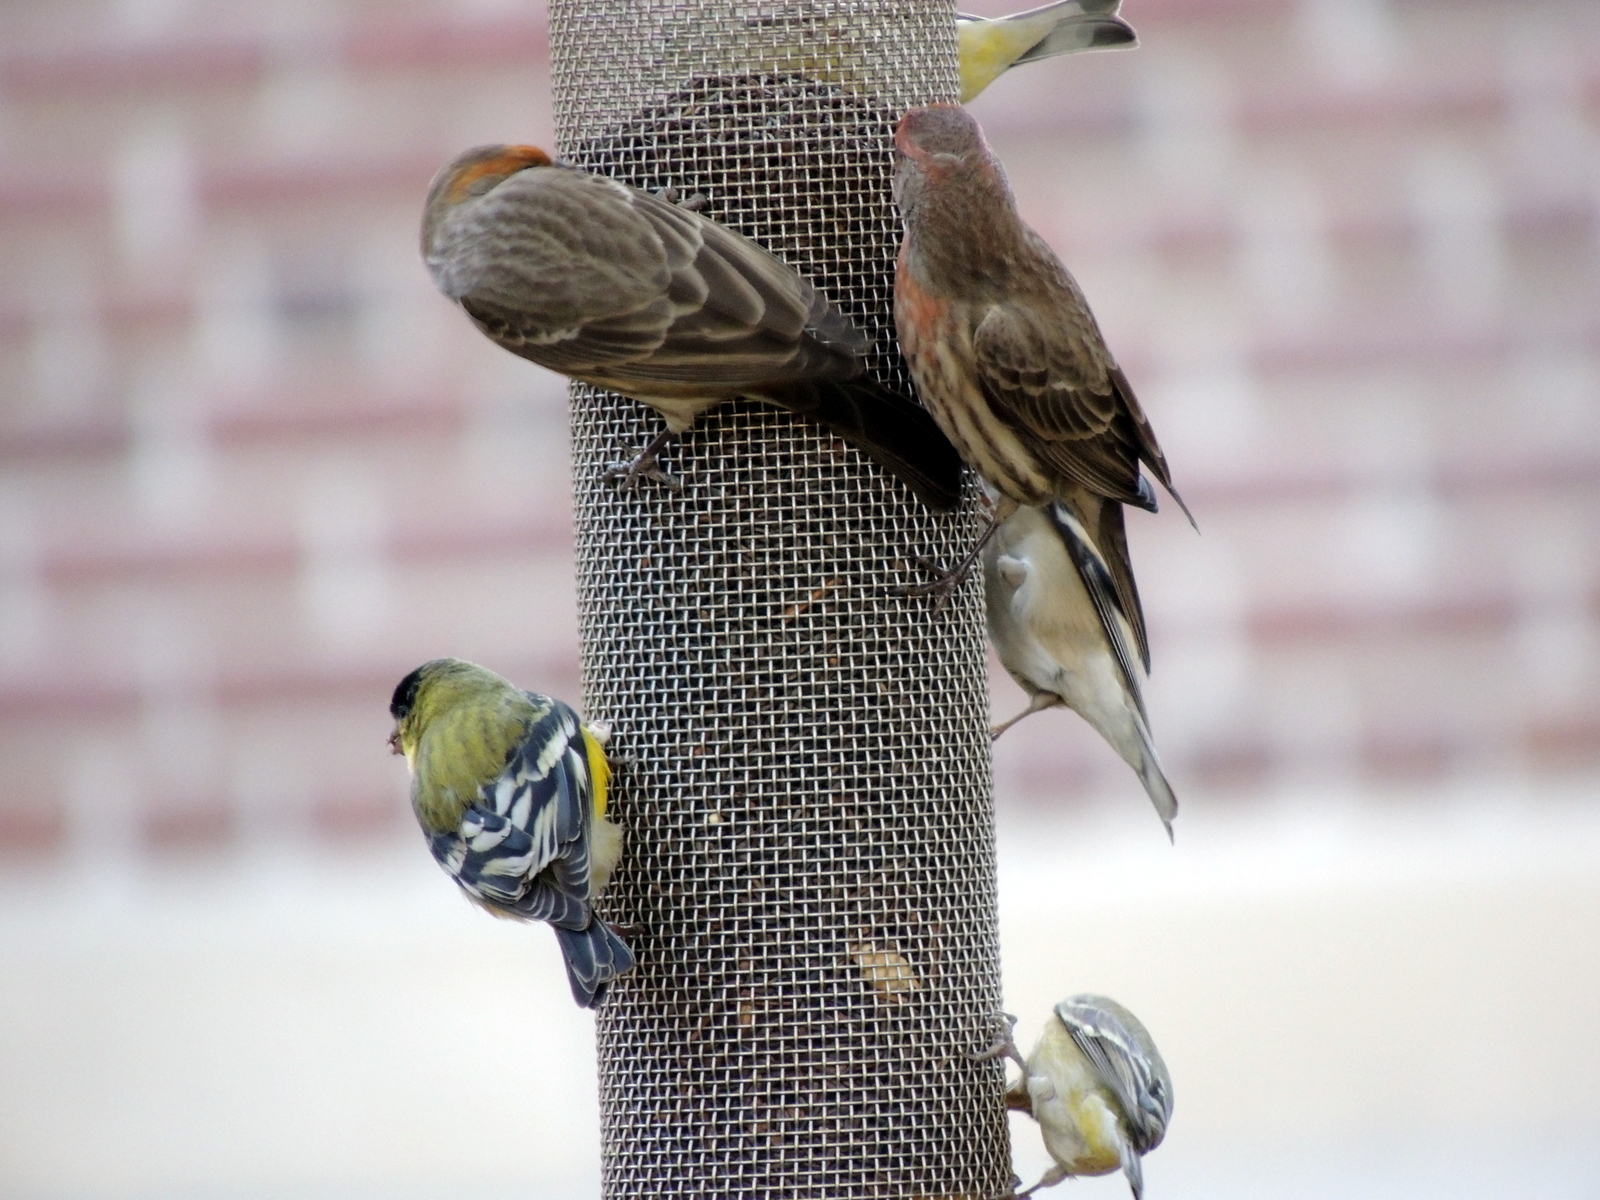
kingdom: Animalia
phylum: Chordata
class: Aves
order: Passeriformes
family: Fringillidae
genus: Spinus
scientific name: Spinus psaltria
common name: Lesser goldfinch
